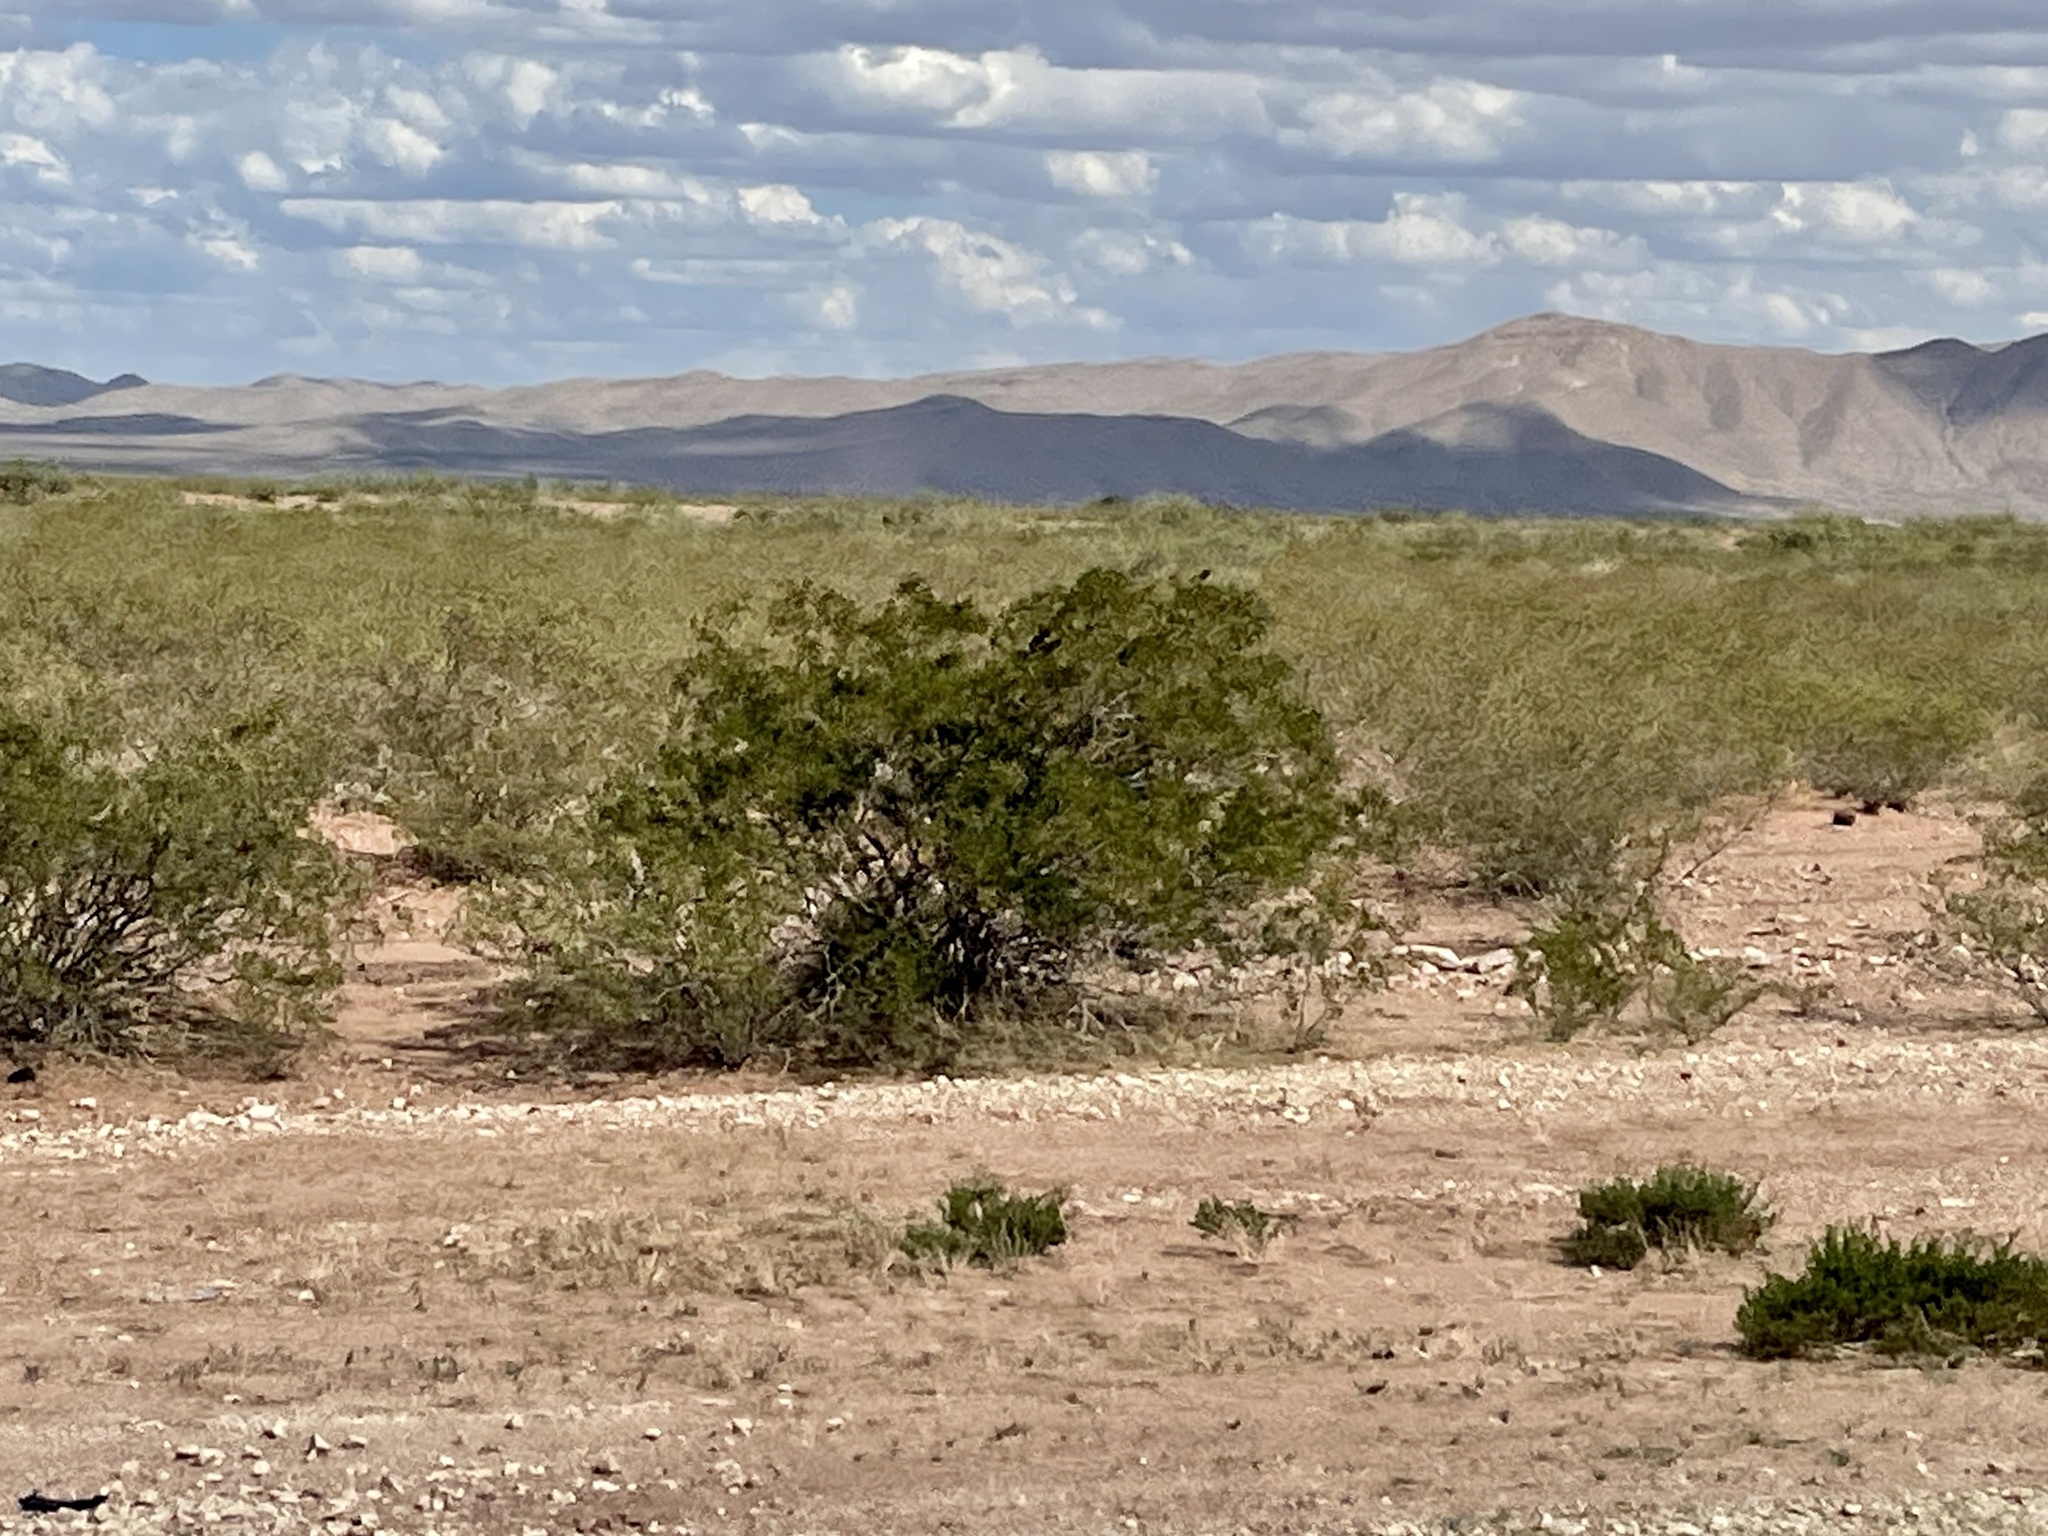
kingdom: Plantae
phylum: Tracheophyta
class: Magnoliopsida
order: Zygophyllales
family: Zygophyllaceae
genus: Larrea
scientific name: Larrea tridentata
